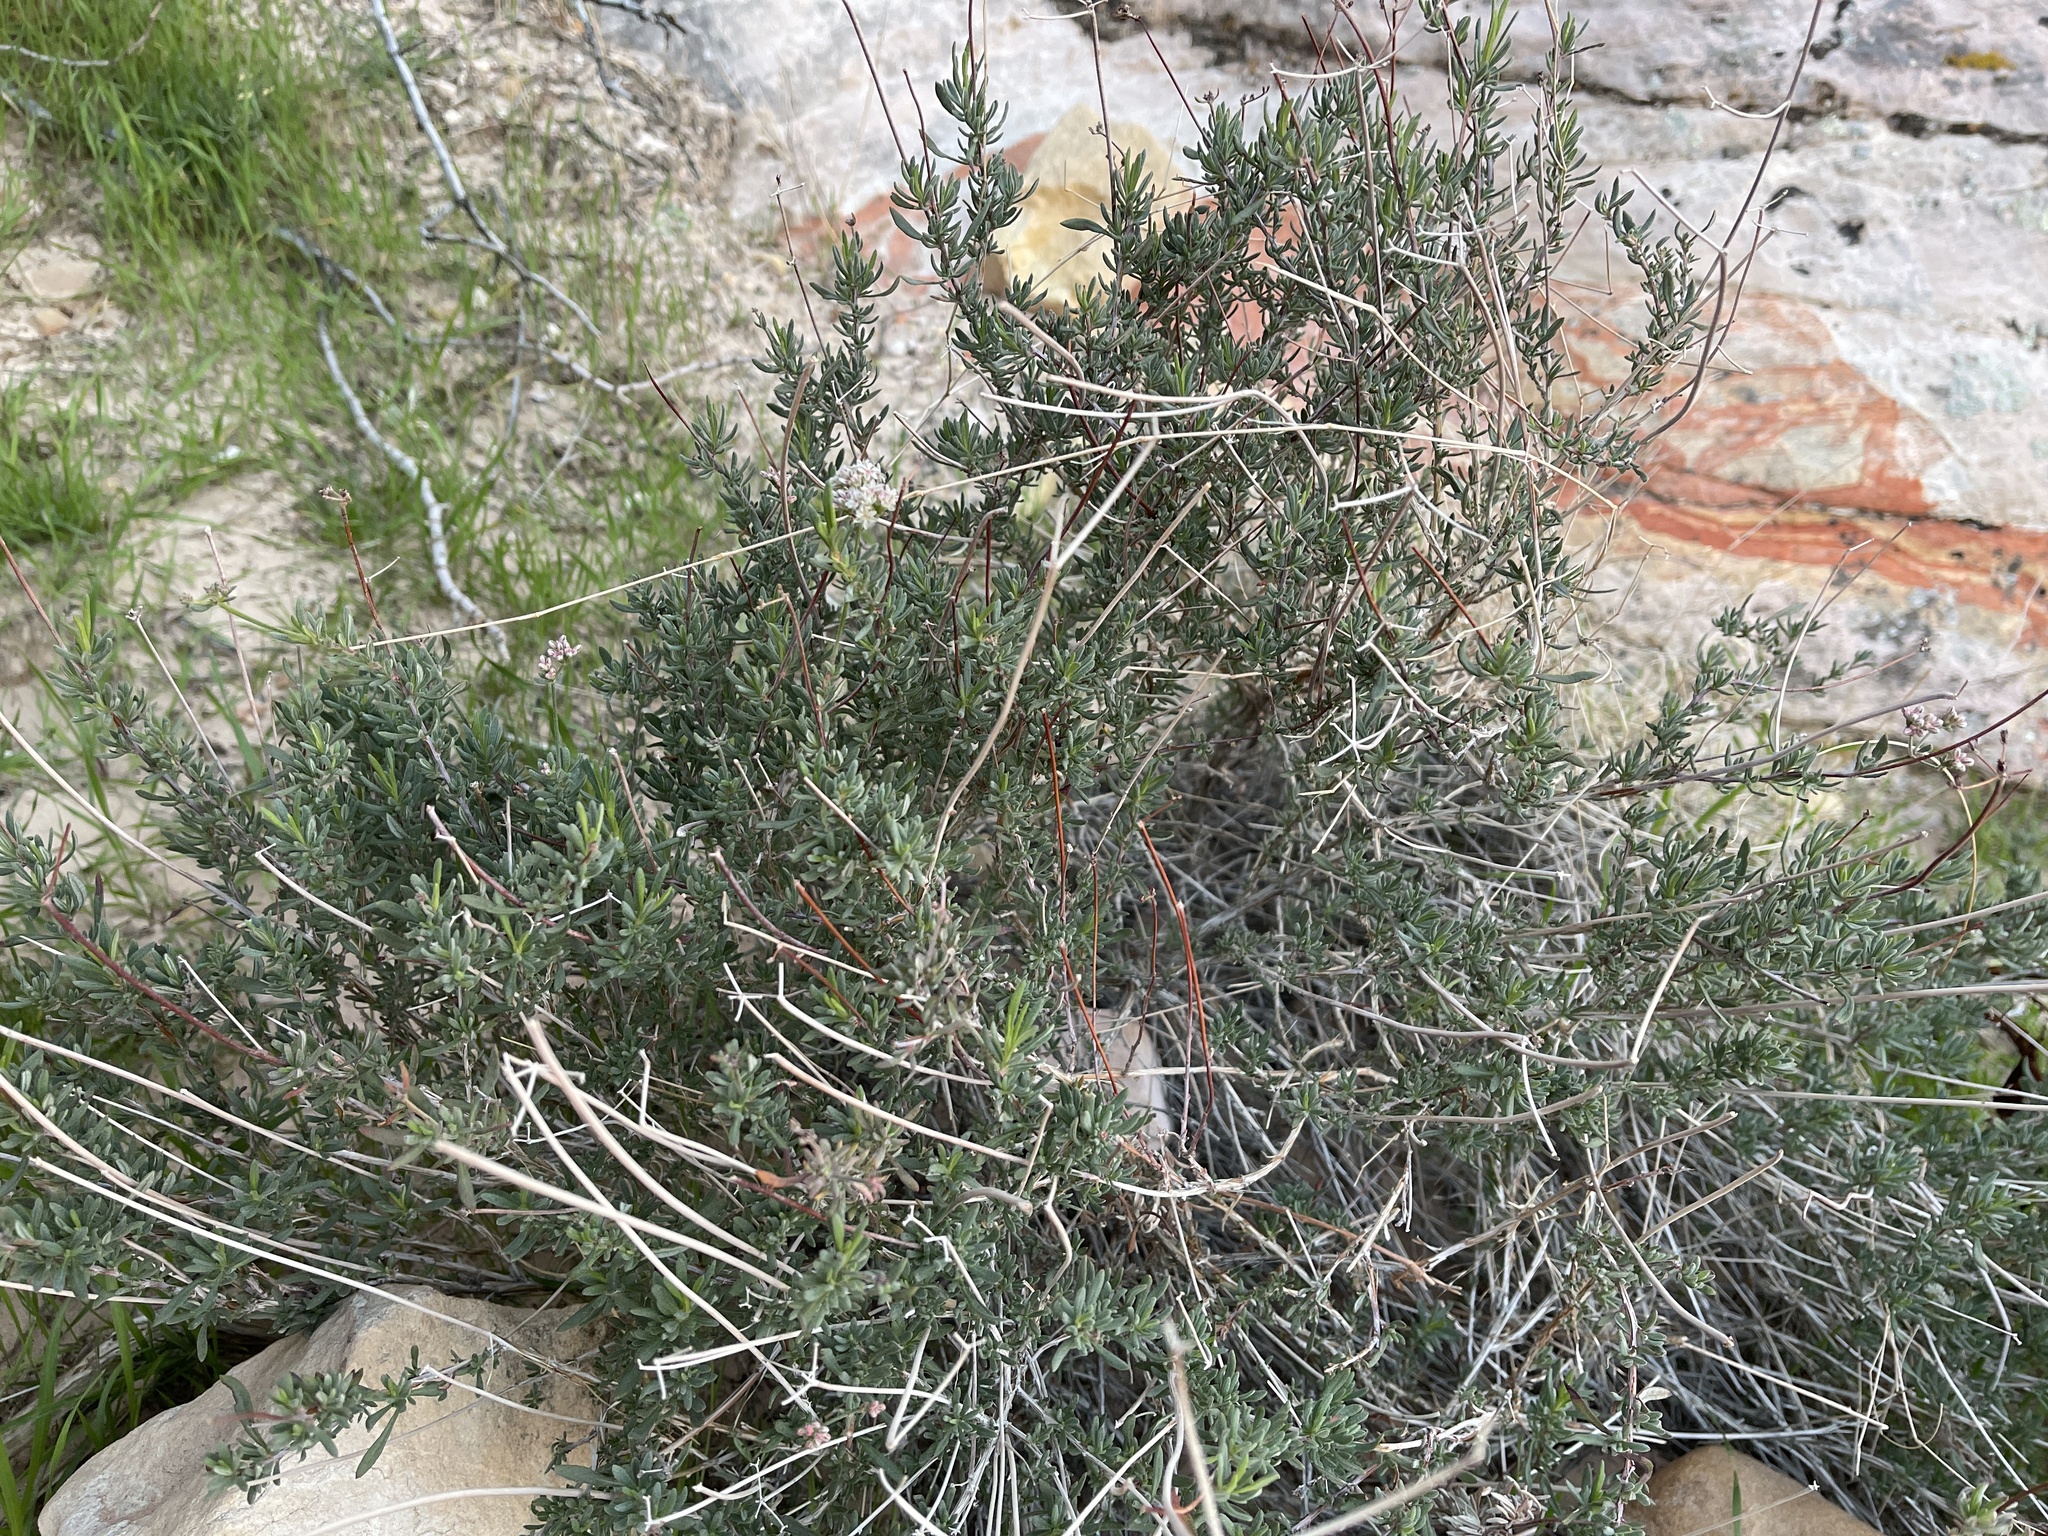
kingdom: Plantae
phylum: Tracheophyta
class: Magnoliopsida
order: Caryophyllales
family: Polygonaceae
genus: Eriogonum
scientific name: Eriogonum fasciculatum
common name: California wild buckwheat
